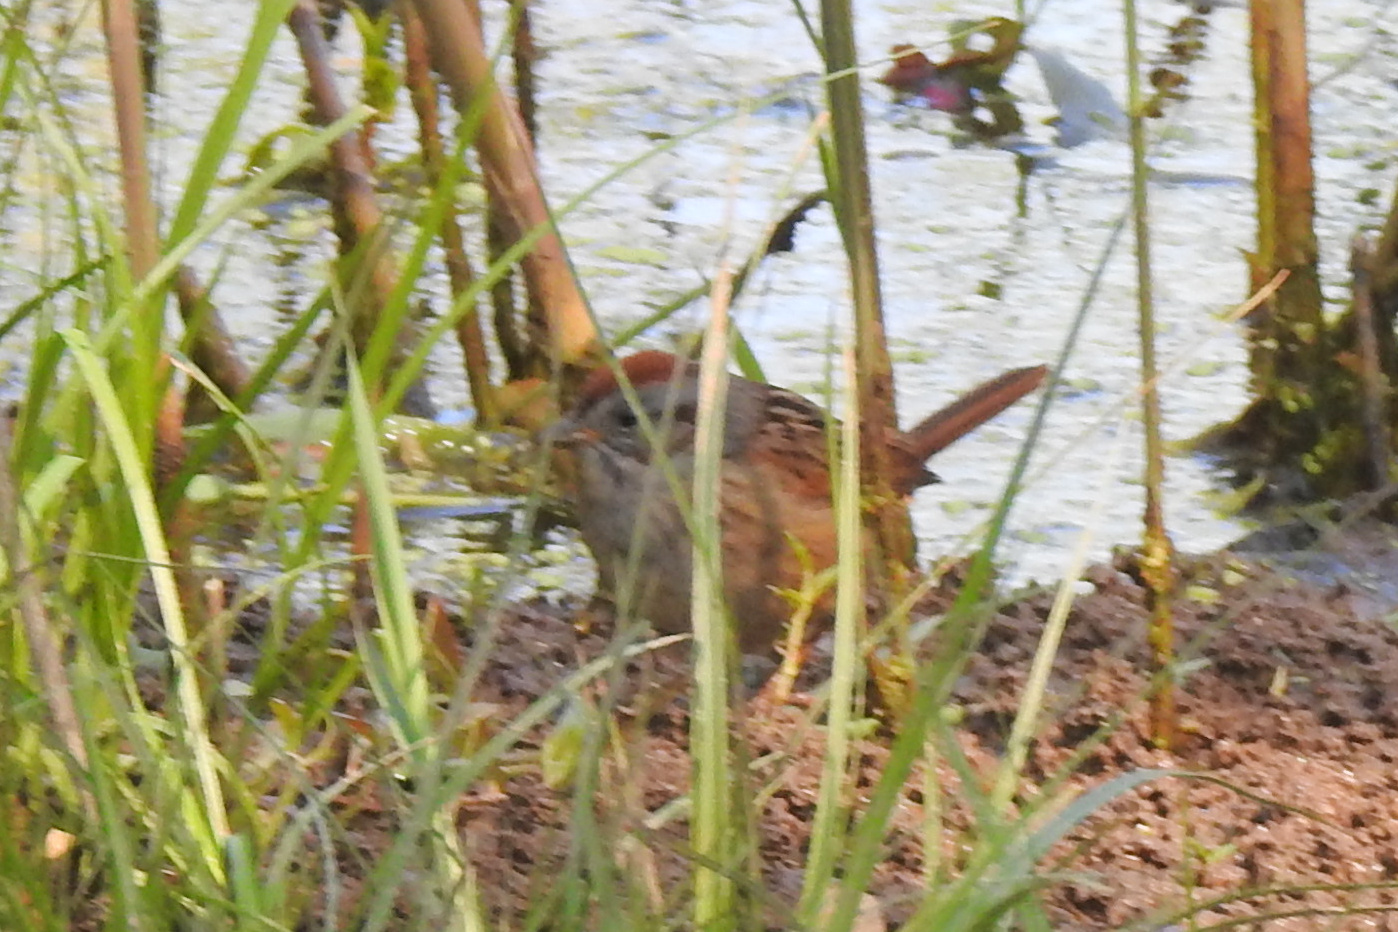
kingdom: Animalia
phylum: Chordata
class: Aves
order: Passeriformes
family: Passerellidae
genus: Melospiza
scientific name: Melospiza georgiana
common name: Swamp sparrow
